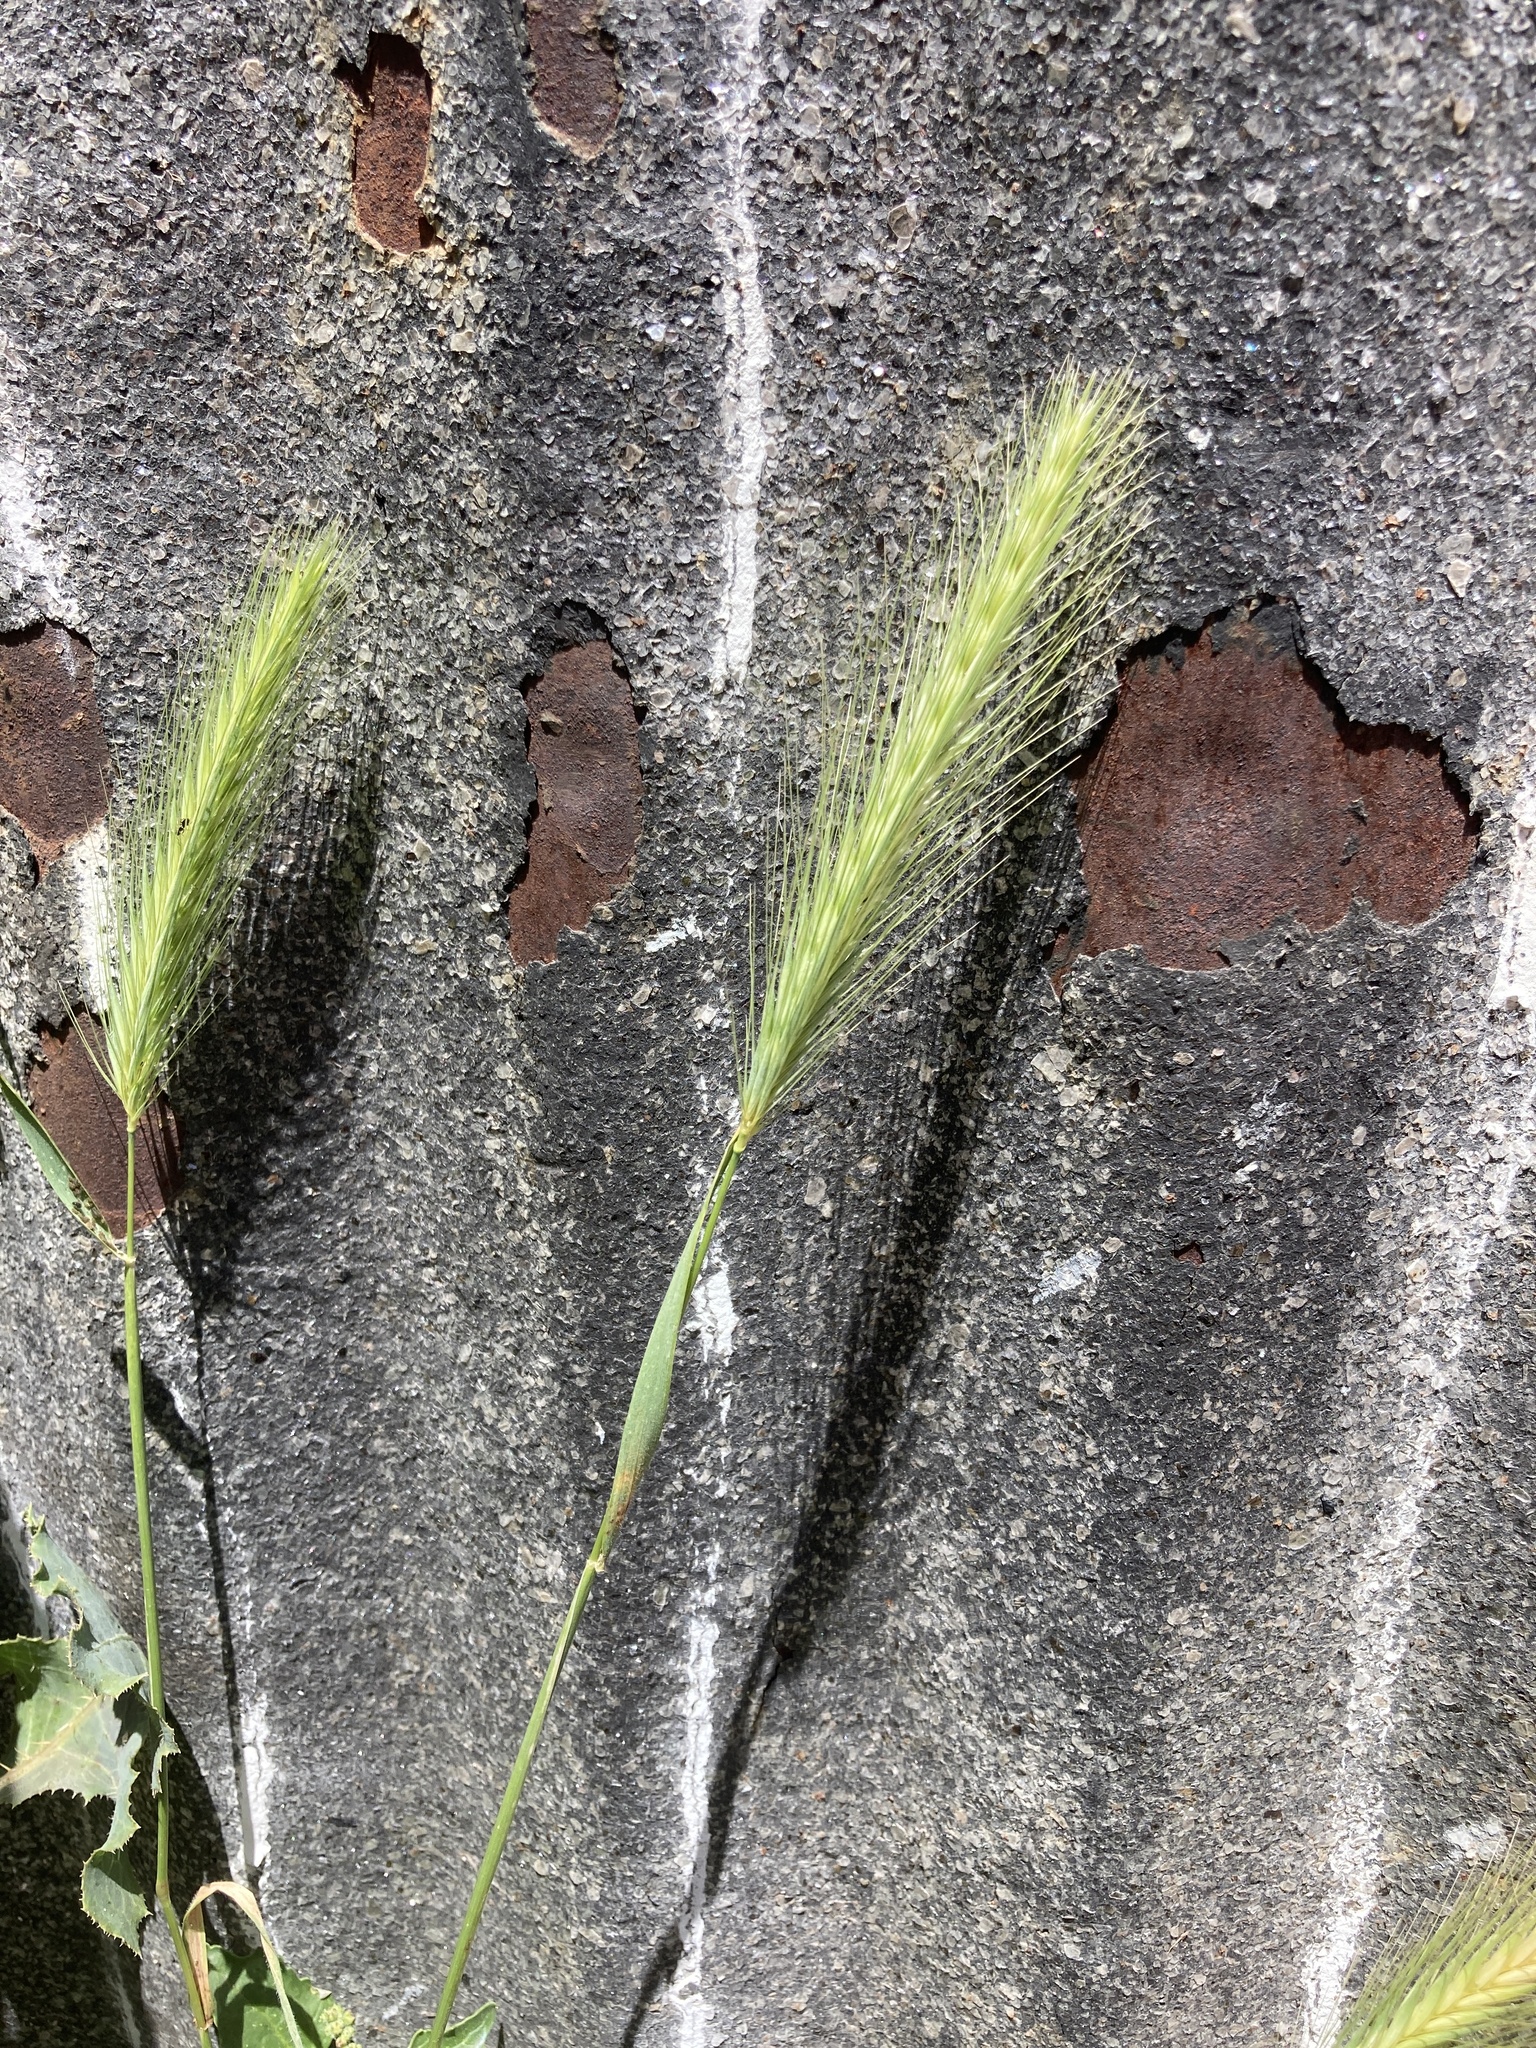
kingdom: Plantae
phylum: Tracheophyta
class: Liliopsida
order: Poales
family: Poaceae
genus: Hordeum
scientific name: Hordeum murinum
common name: Wall barley
